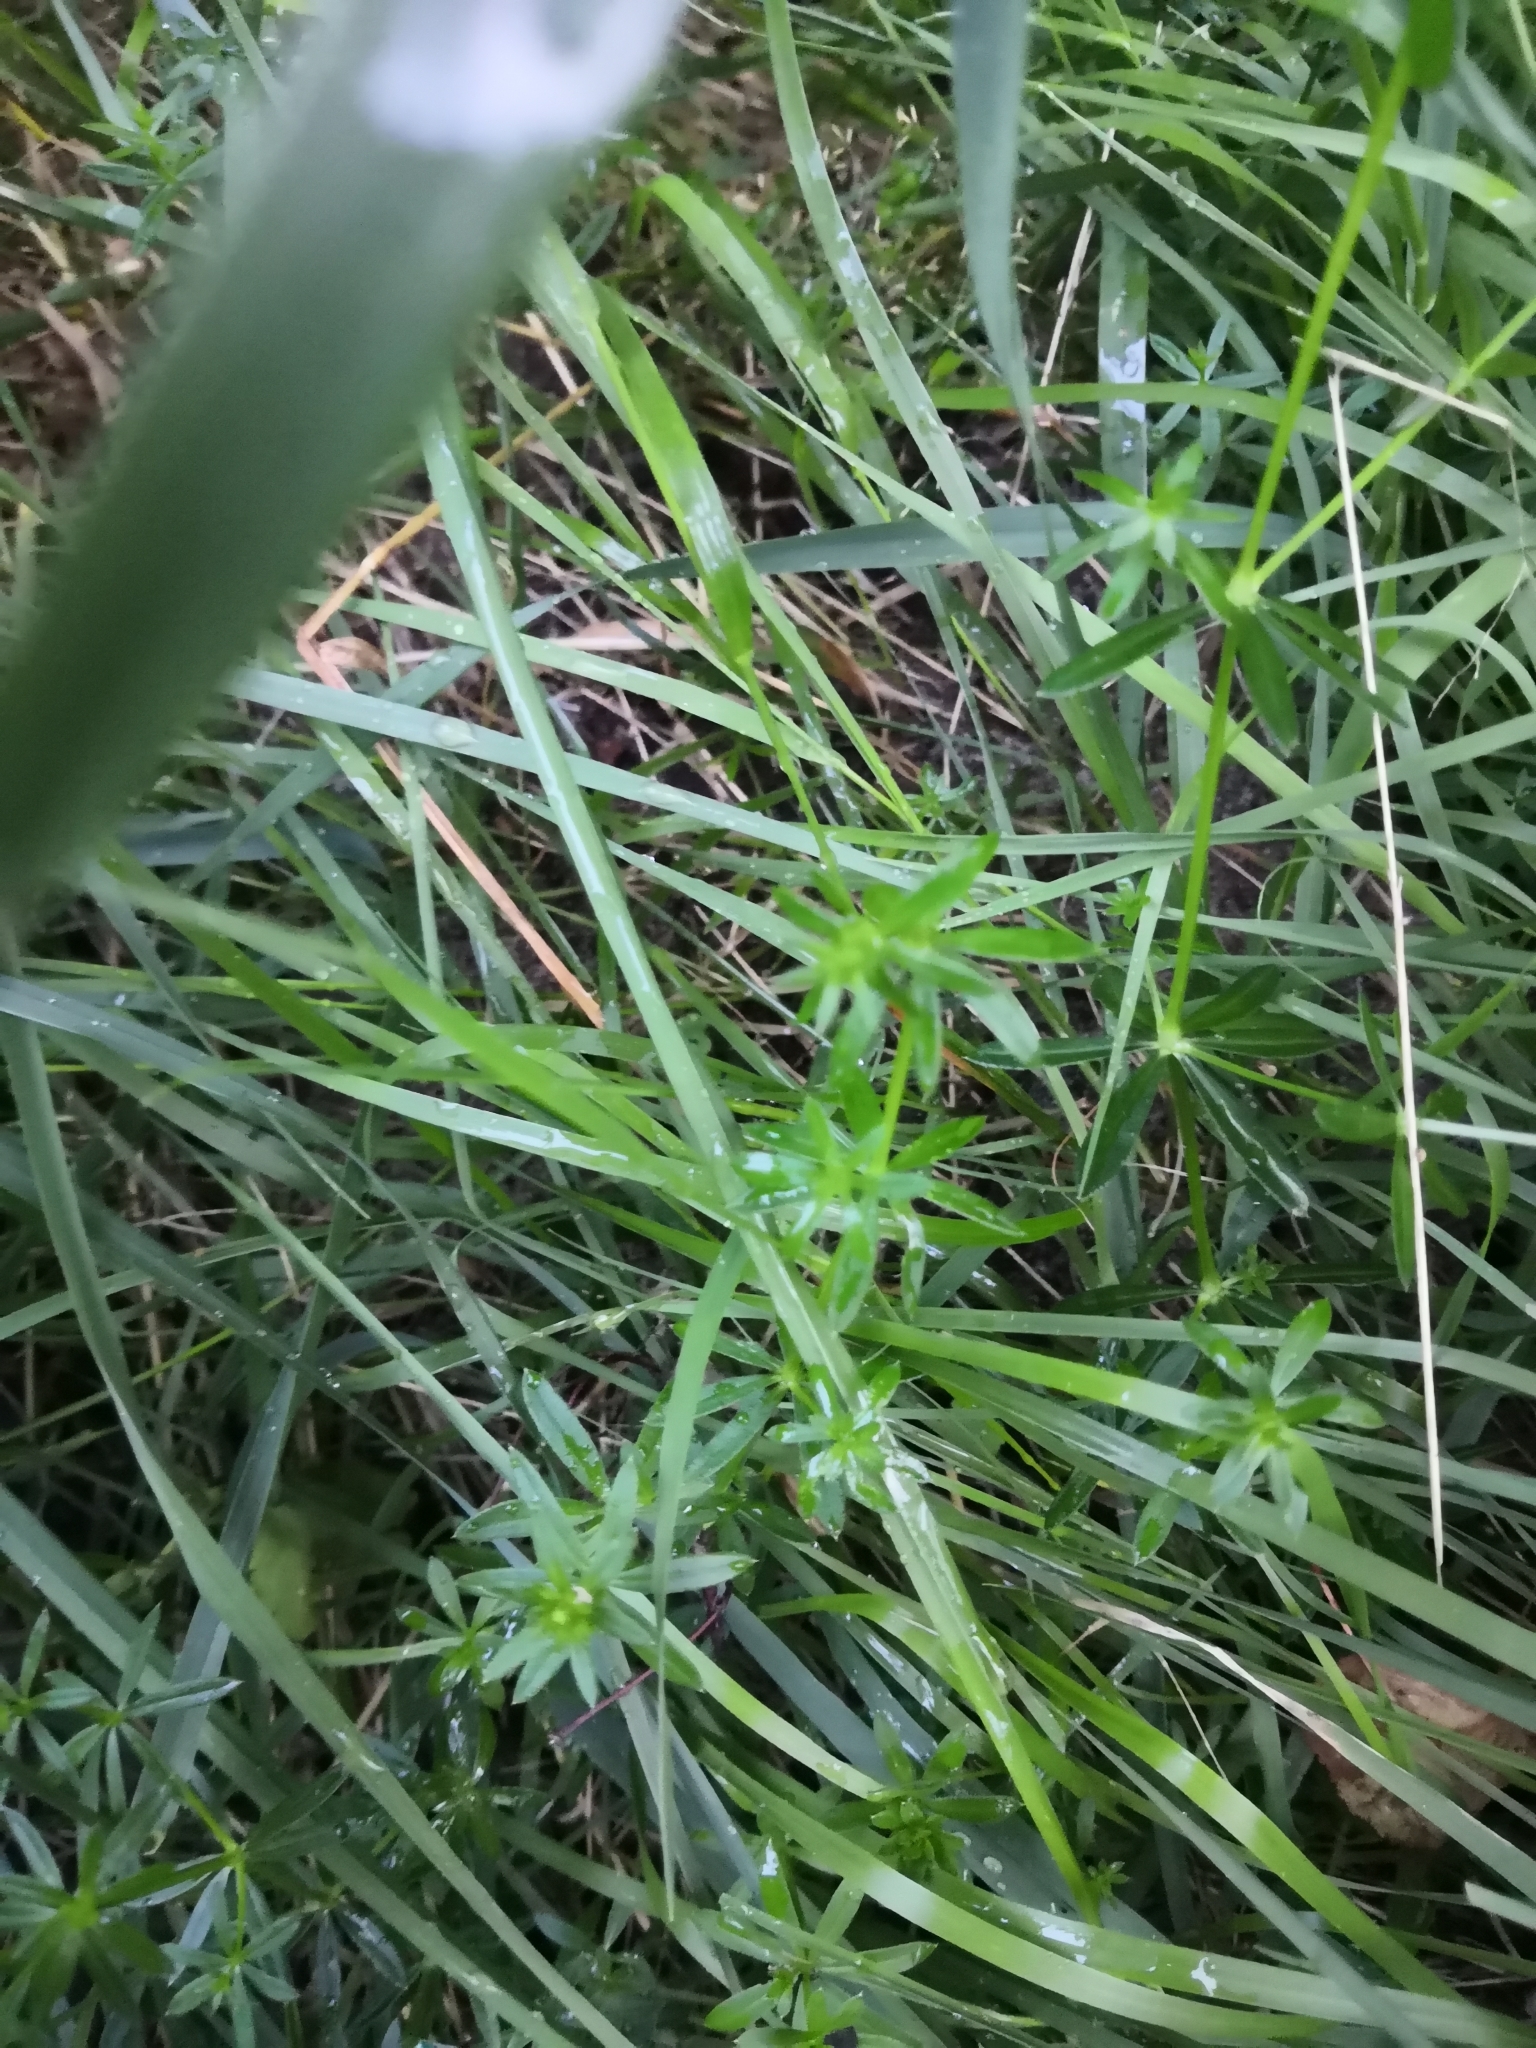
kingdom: Plantae
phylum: Tracheophyta
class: Magnoliopsida
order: Gentianales
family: Rubiaceae
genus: Galium
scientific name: Galium mollugo
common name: Hedge bedstraw
